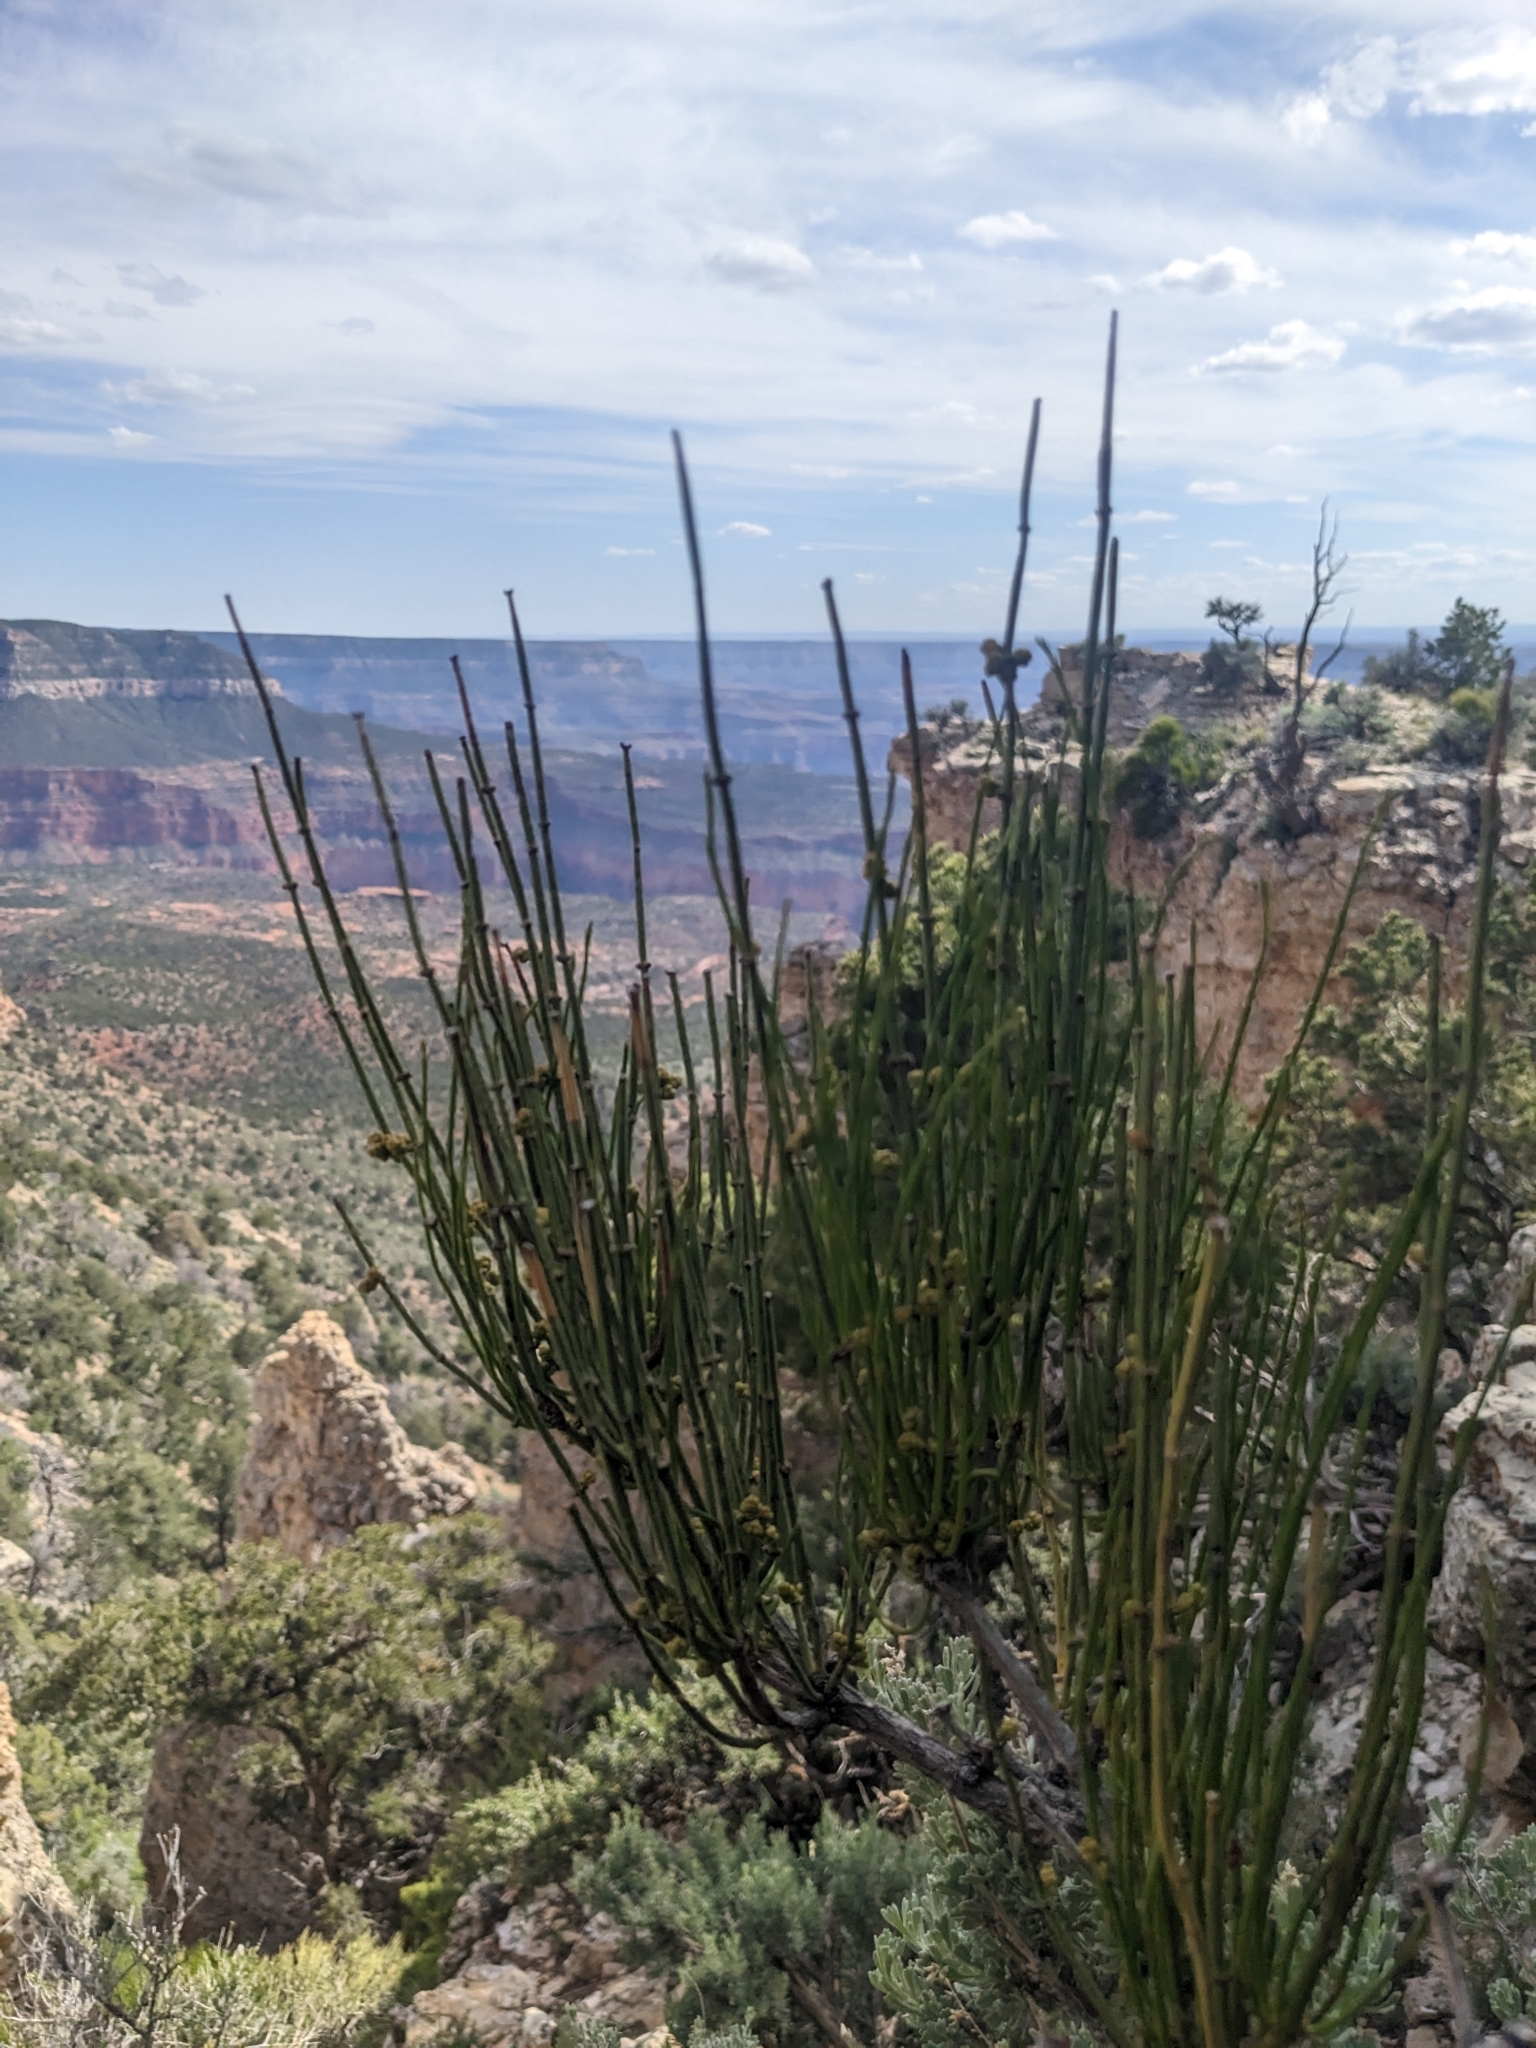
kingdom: Plantae
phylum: Tracheophyta
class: Gnetopsida
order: Ephedrales
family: Ephedraceae
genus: Ephedra
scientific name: Ephedra viridis
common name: Green ephedra
